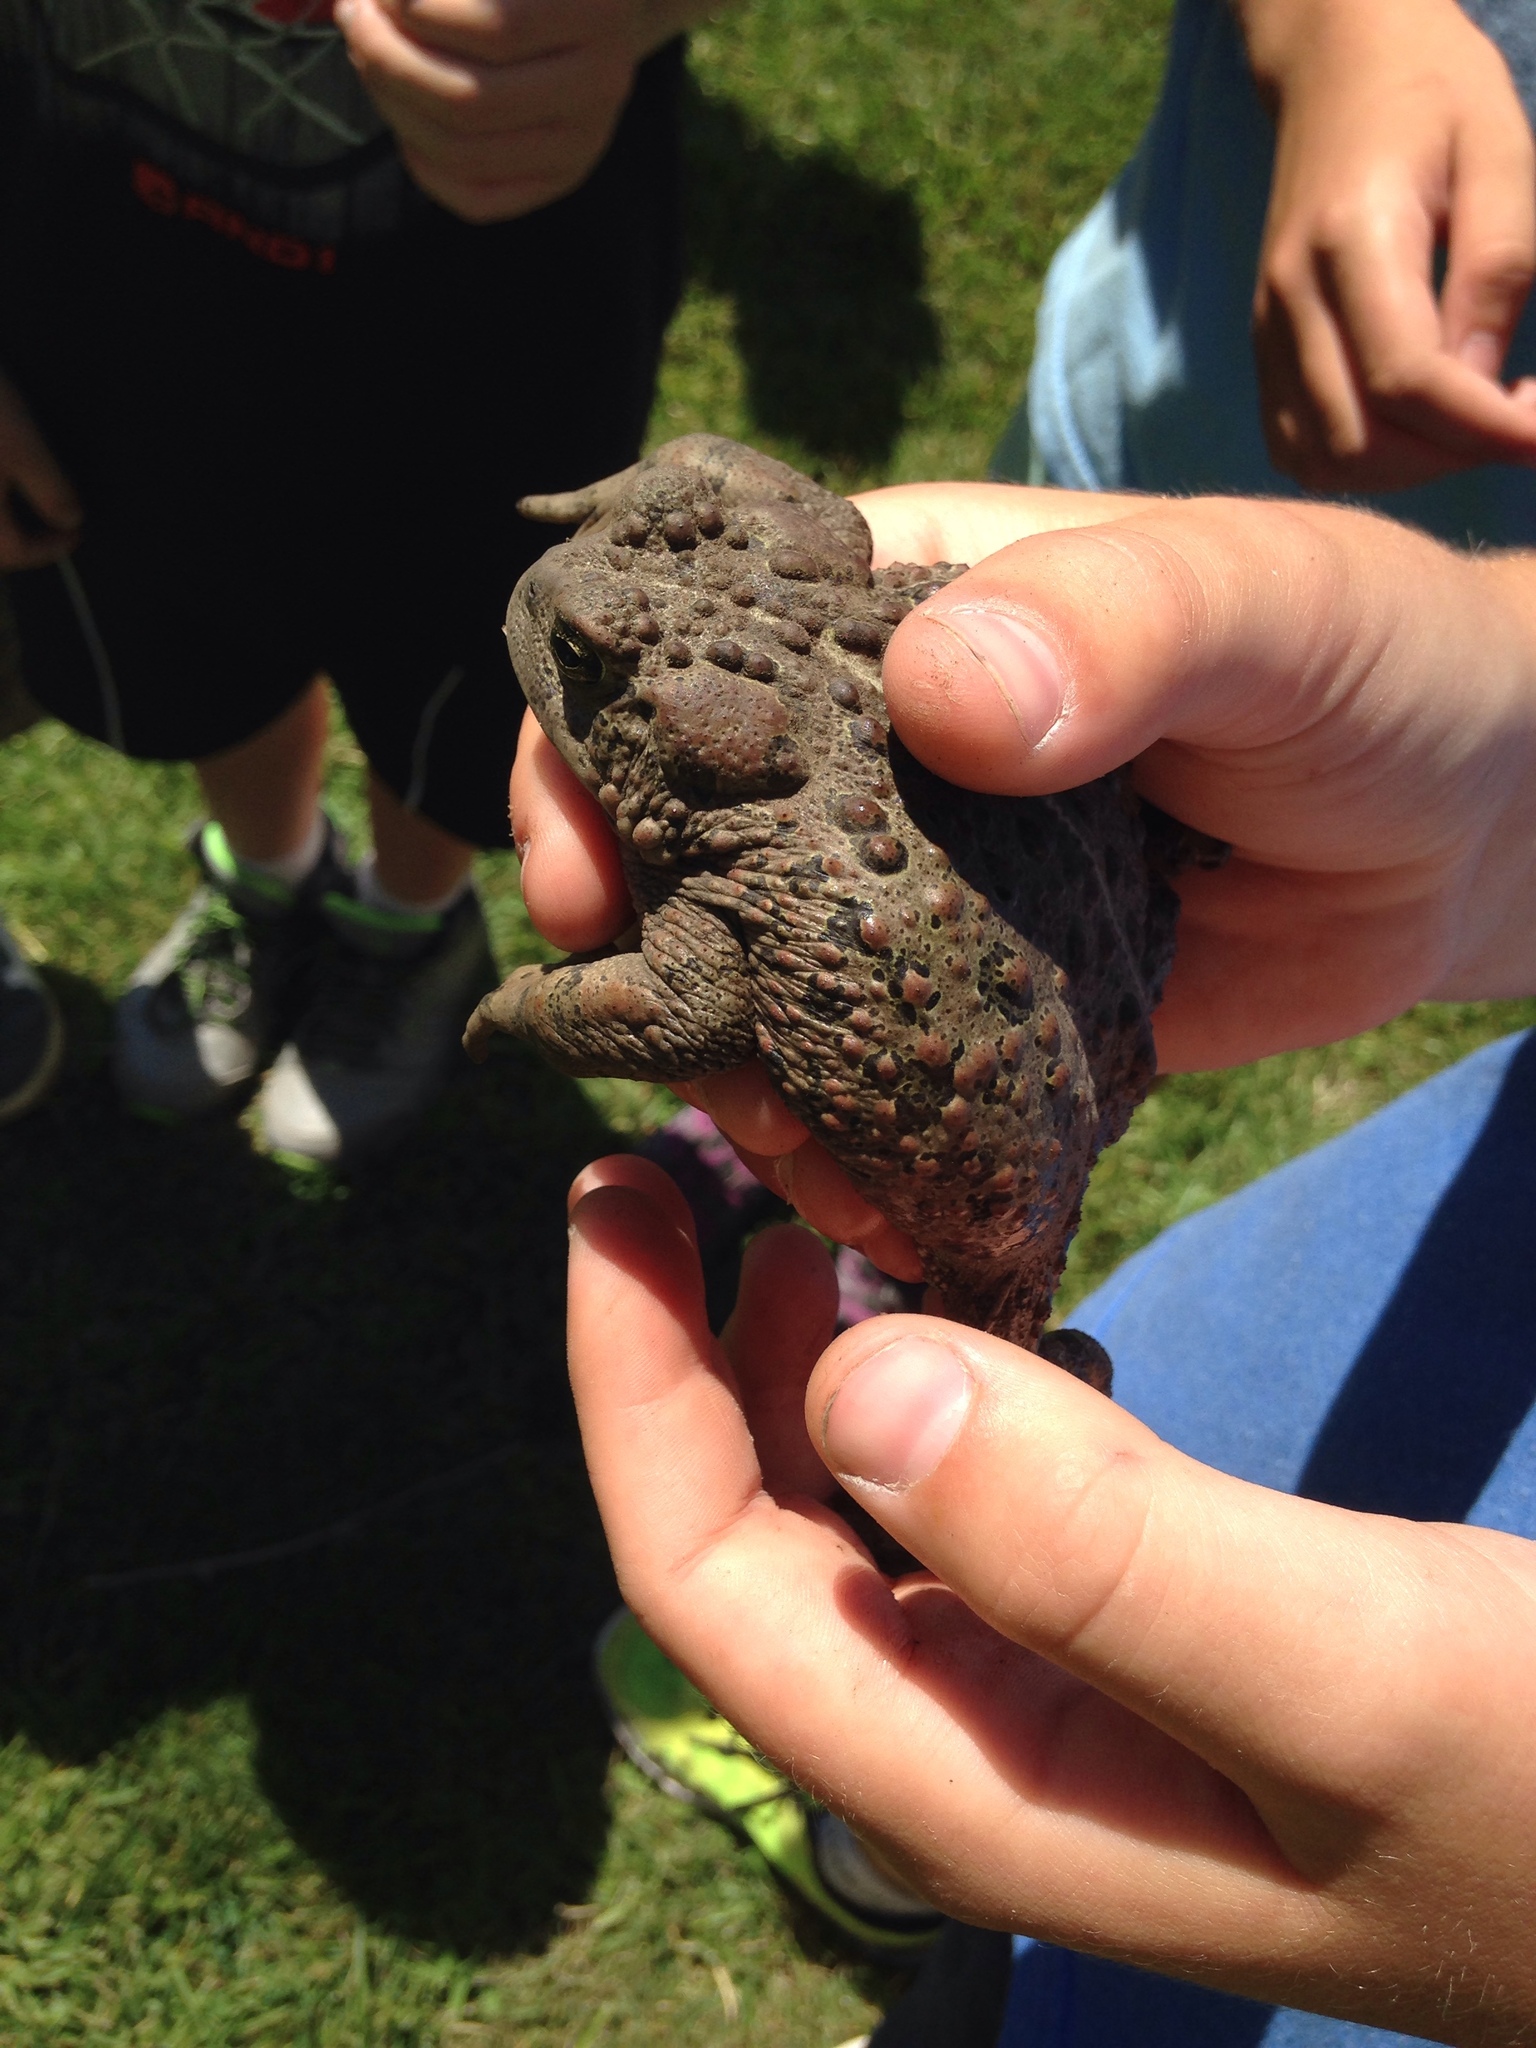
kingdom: Animalia
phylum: Chordata
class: Amphibia
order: Anura
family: Bufonidae
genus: Anaxyrus
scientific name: Anaxyrus boreas
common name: Western toad
